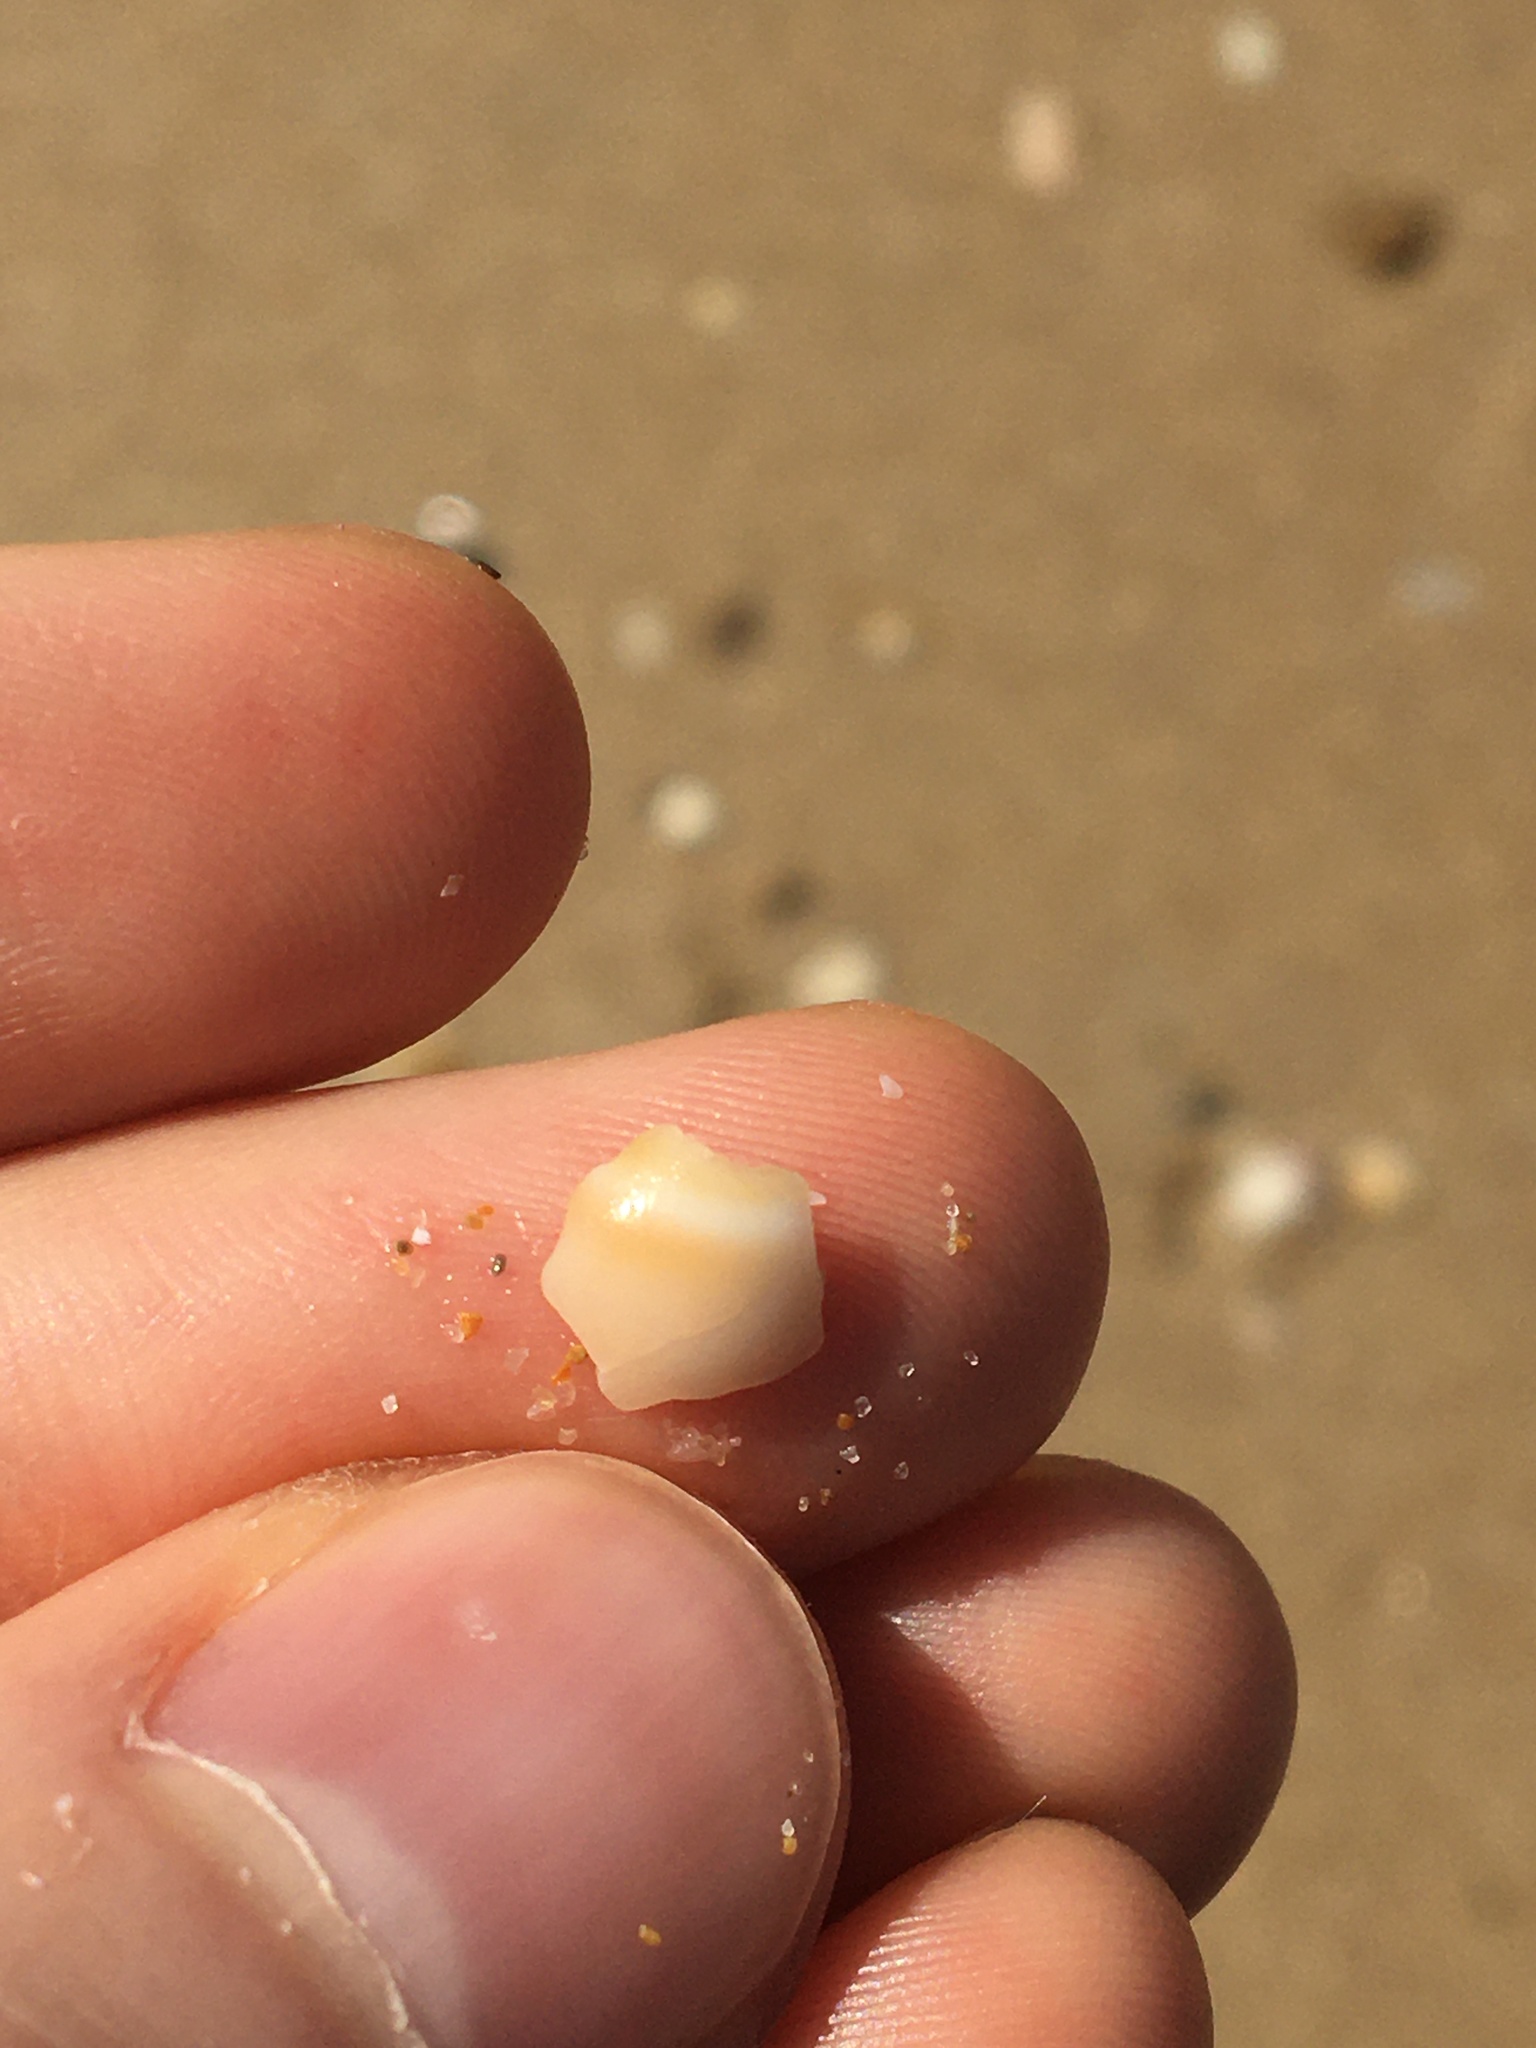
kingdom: Animalia
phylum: Mollusca
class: Gastropoda
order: Littorinimorpha
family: Naticidae
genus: Conuber
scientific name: Conuber conicum
